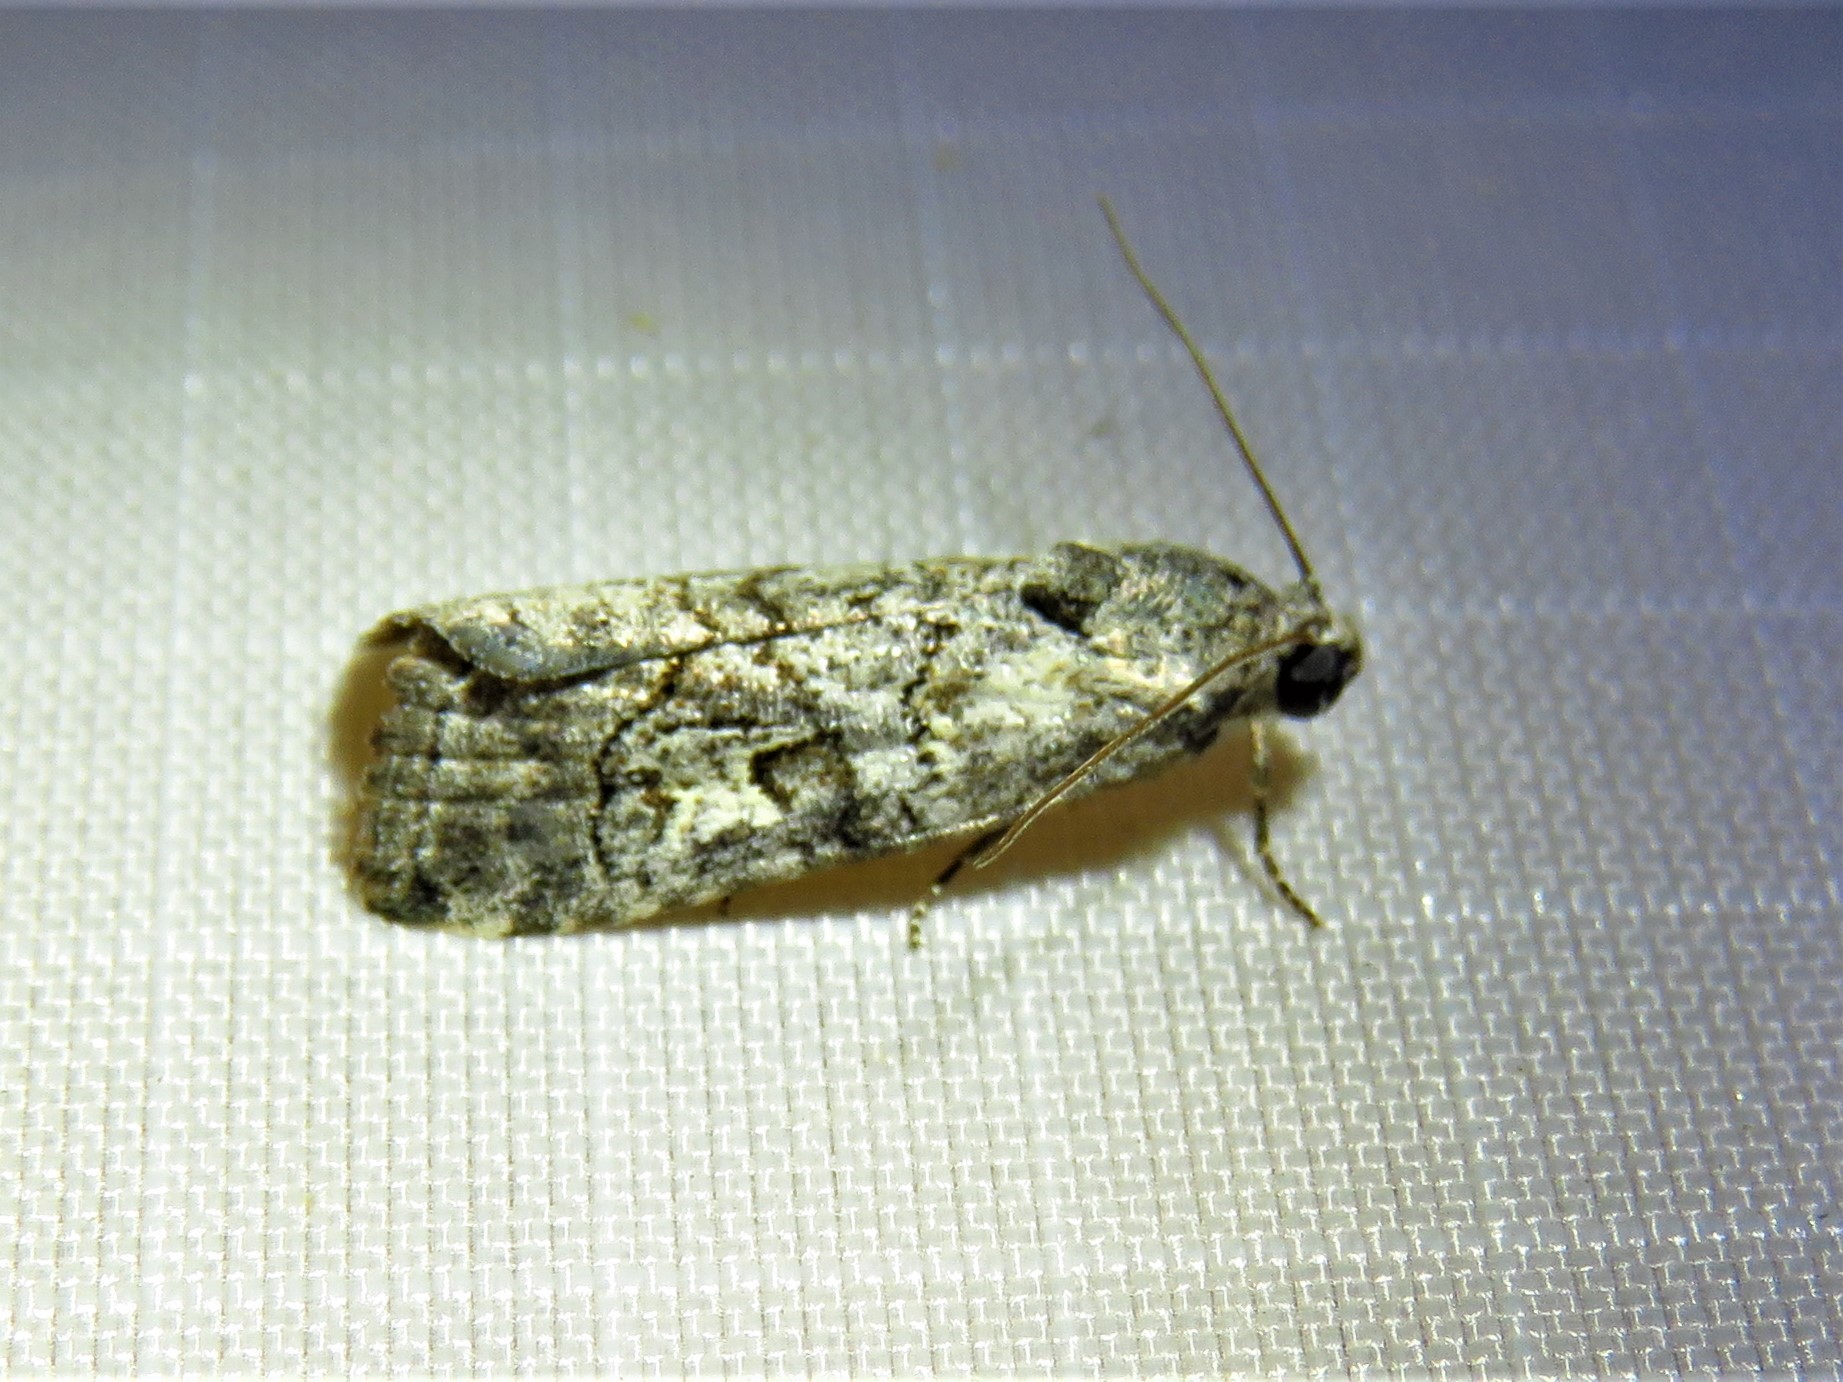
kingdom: Animalia
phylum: Arthropoda
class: Insecta
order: Lepidoptera
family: Noctuidae
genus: Metaponpneumata
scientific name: Metaponpneumata rogenhoferi
